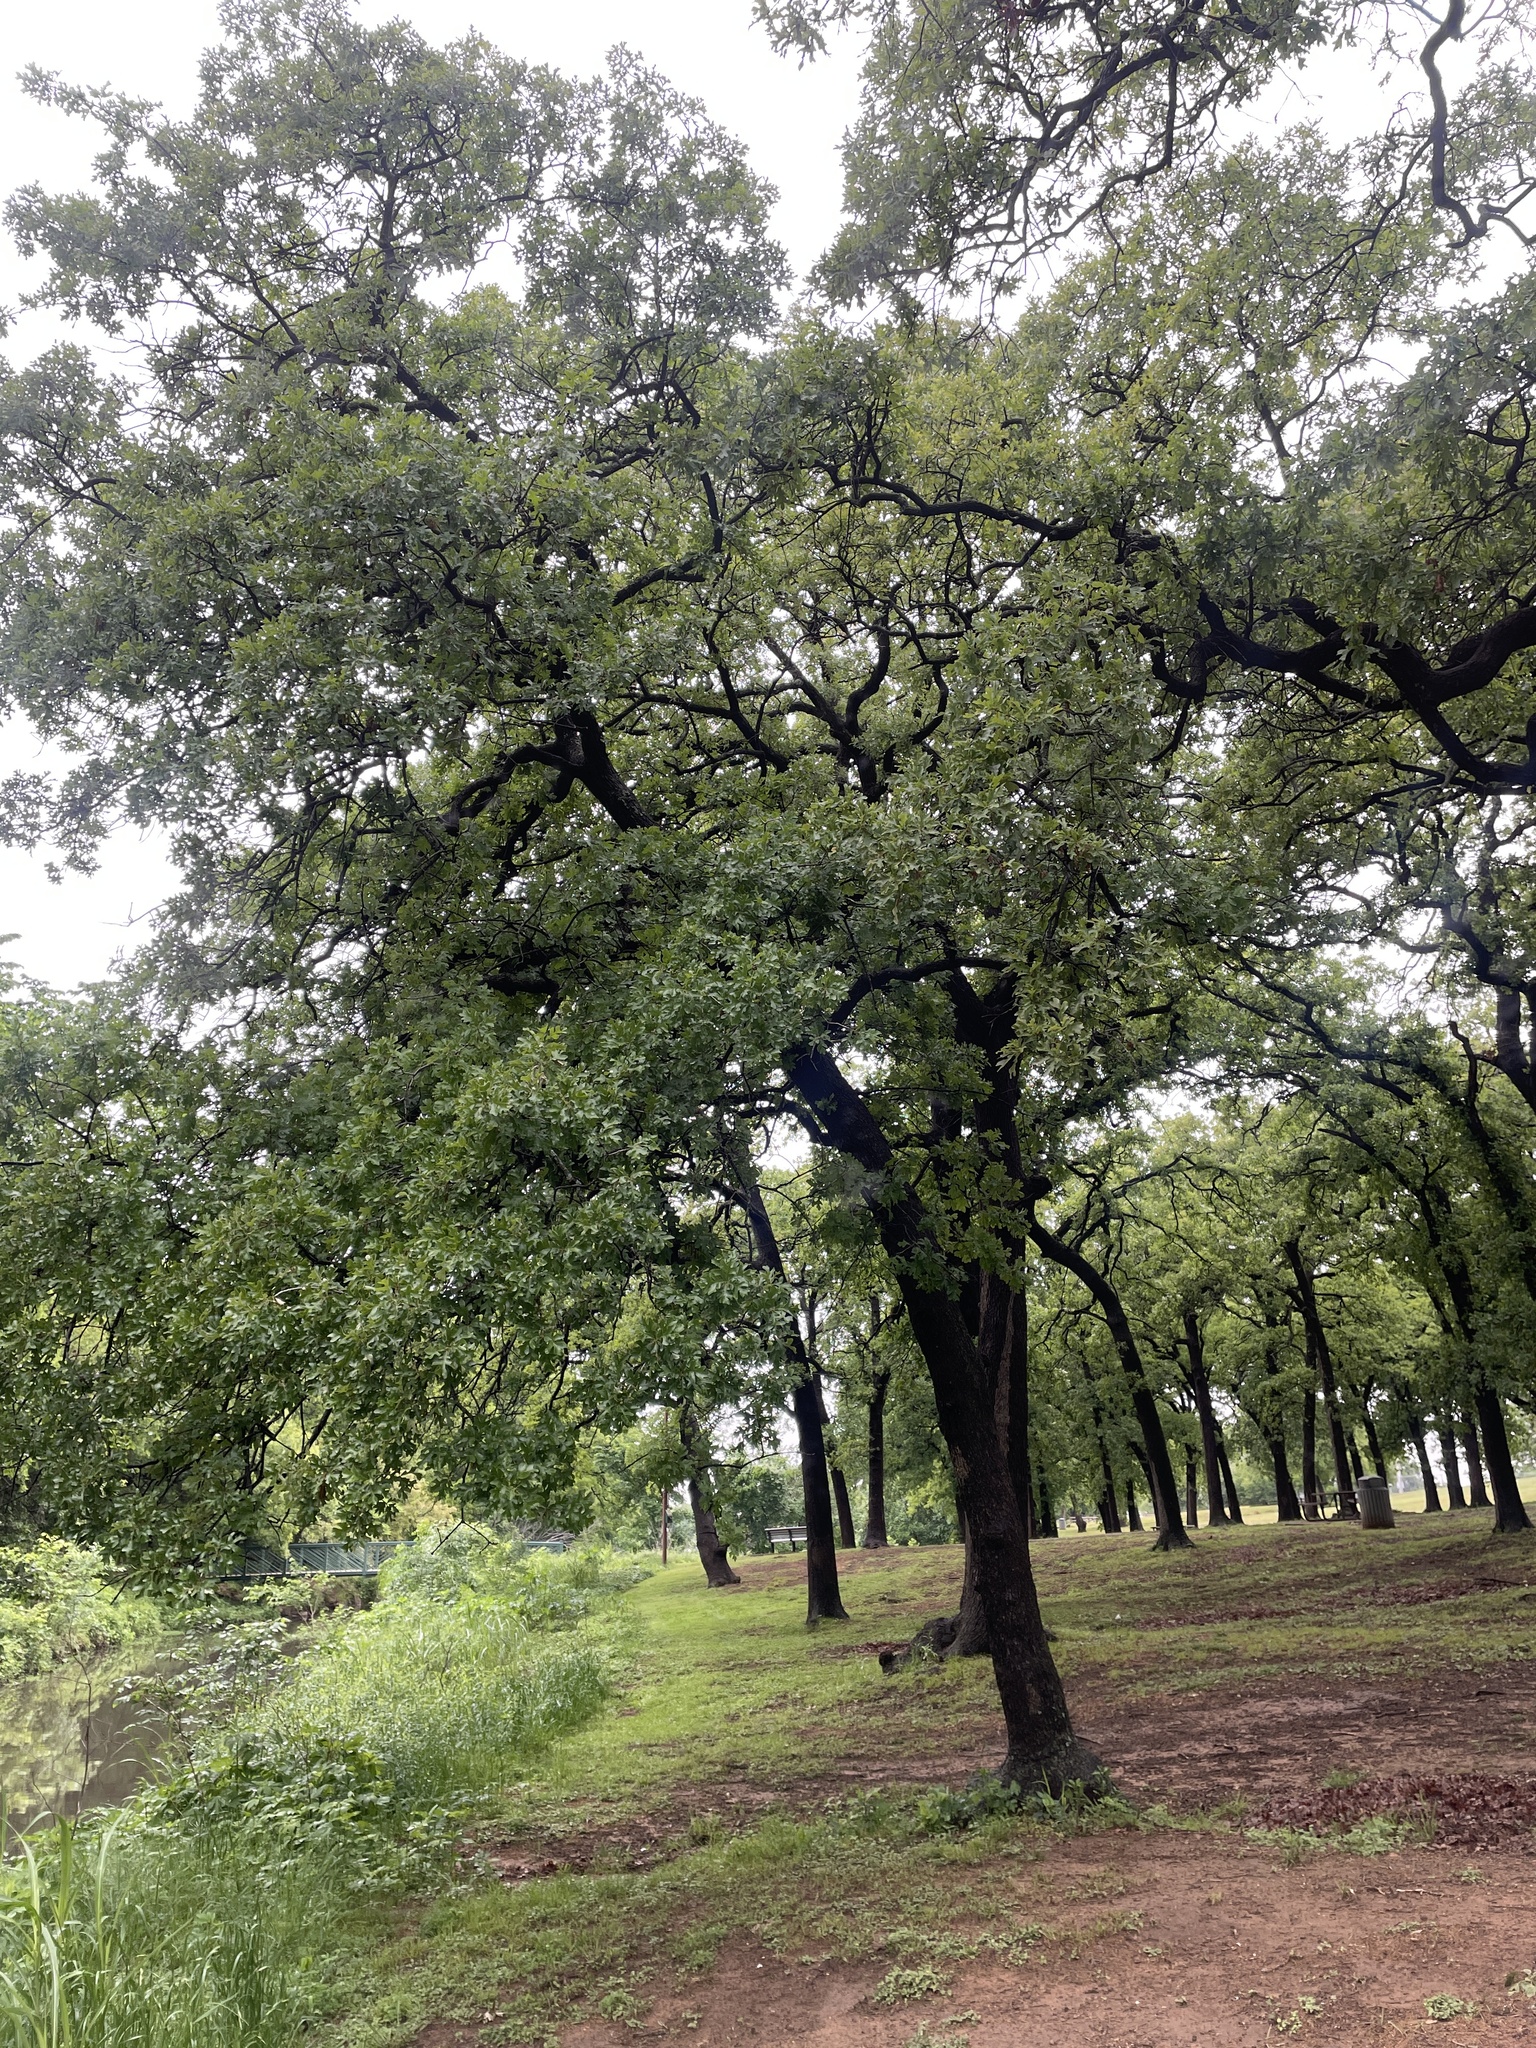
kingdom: Plantae
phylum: Tracheophyta
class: Magnoliopsida
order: Fagales
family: Fagaceae
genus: Quercus
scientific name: Quercus stellata
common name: Post oak
